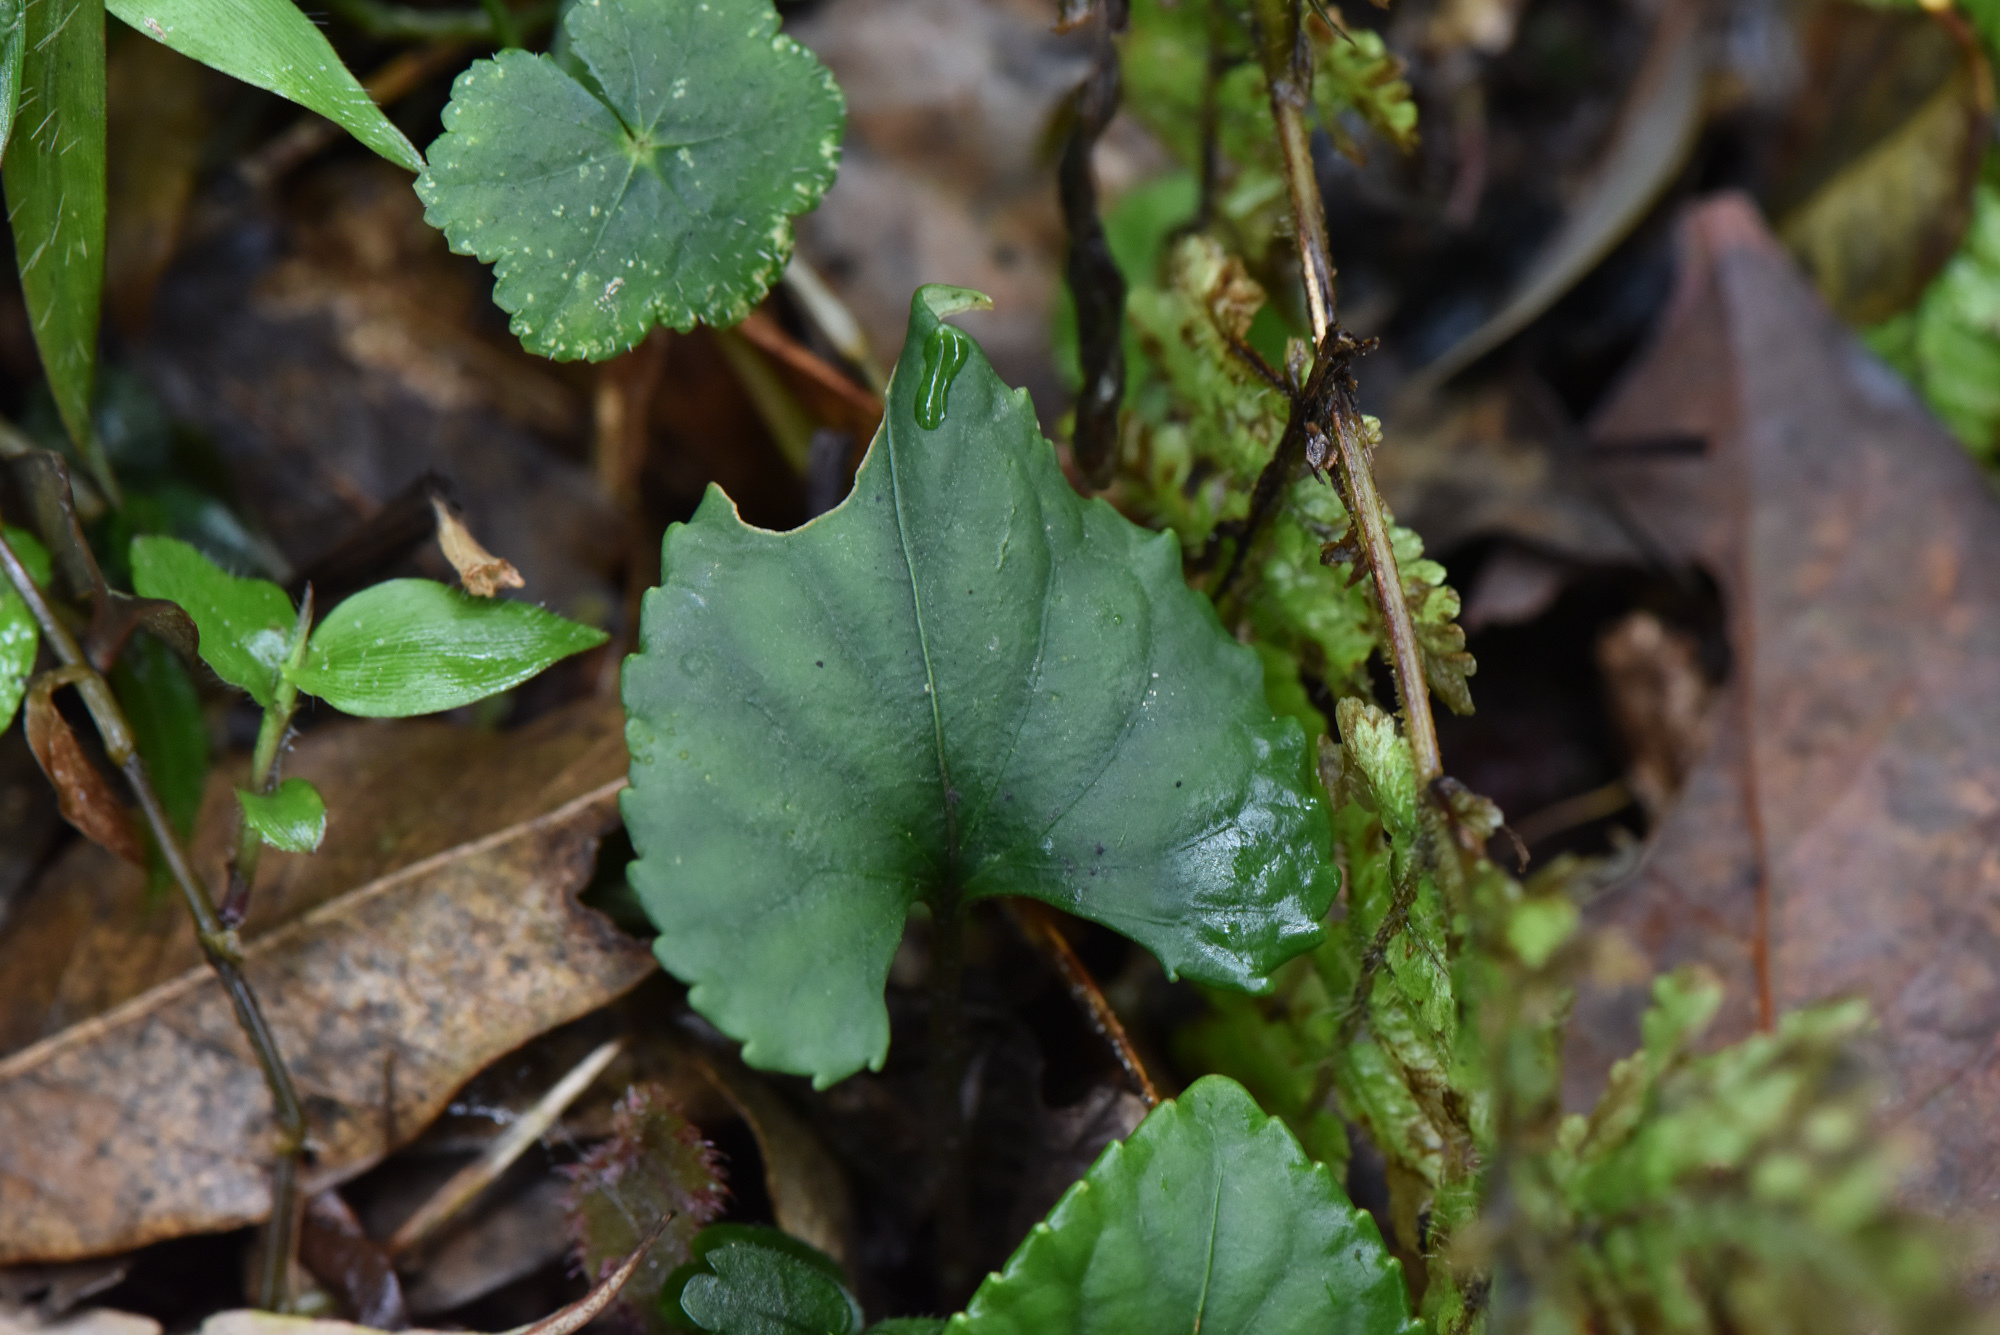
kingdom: Plantae
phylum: Tracheophyta
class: Magnoliopsida
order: Malpighiales
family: Violaceae
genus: Viola
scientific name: Viola formosana
